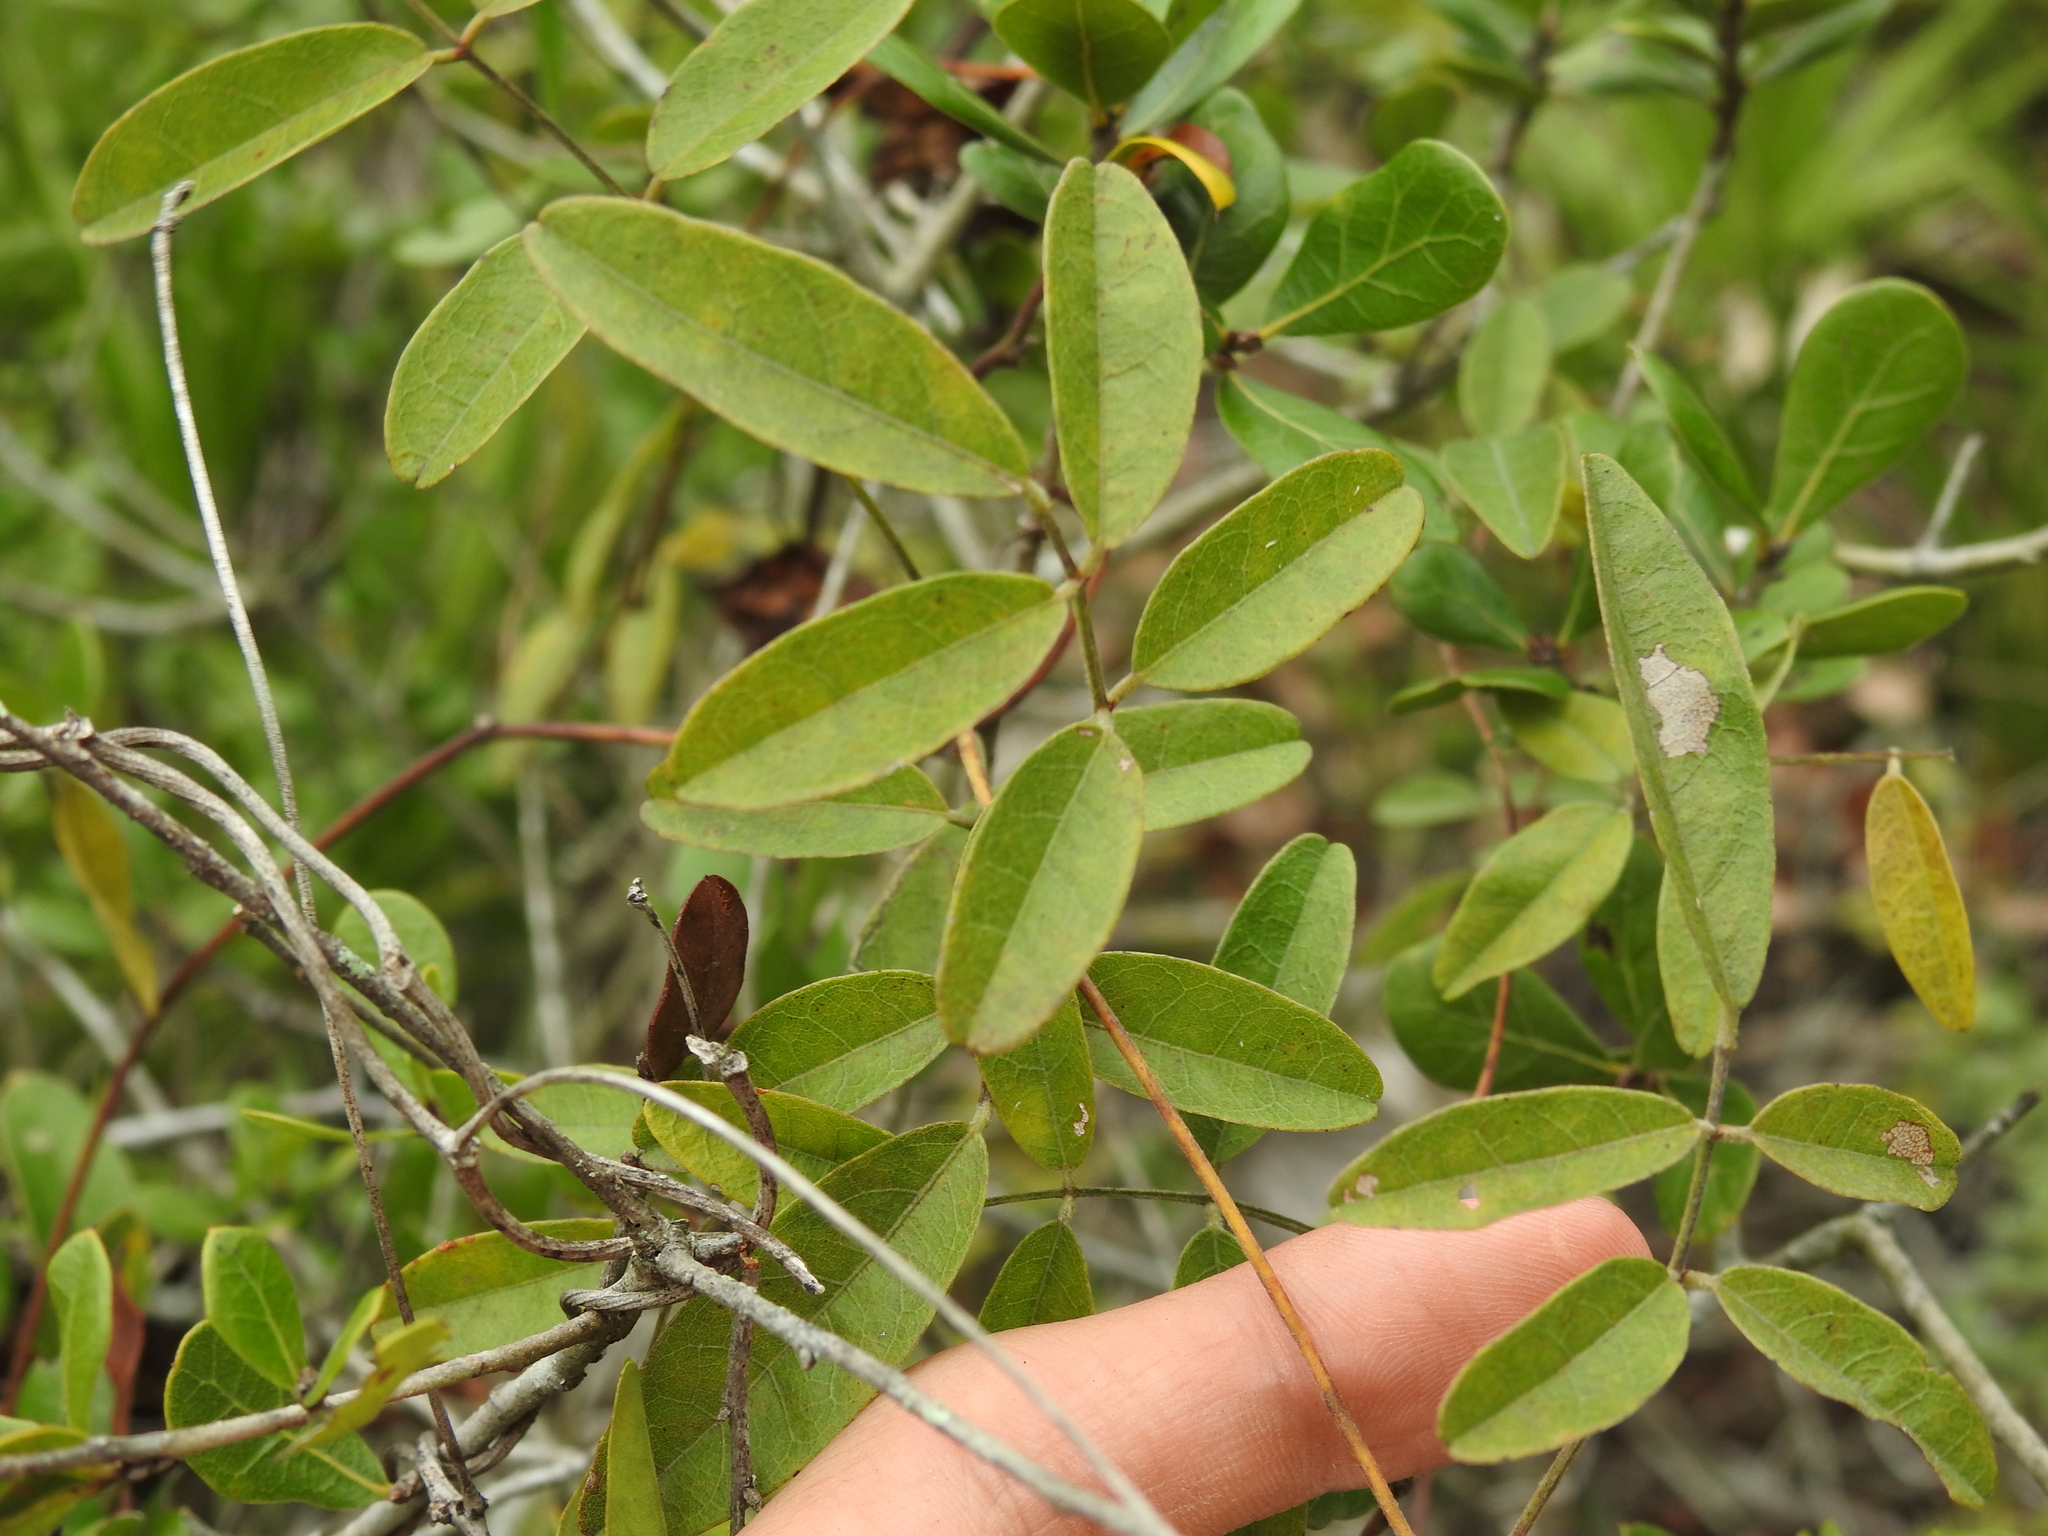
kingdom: Plantae
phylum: Tracheophyta
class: Magnoliopsida
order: Fabales
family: Fabaceae
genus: Galactia
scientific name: Galactia elliottii
